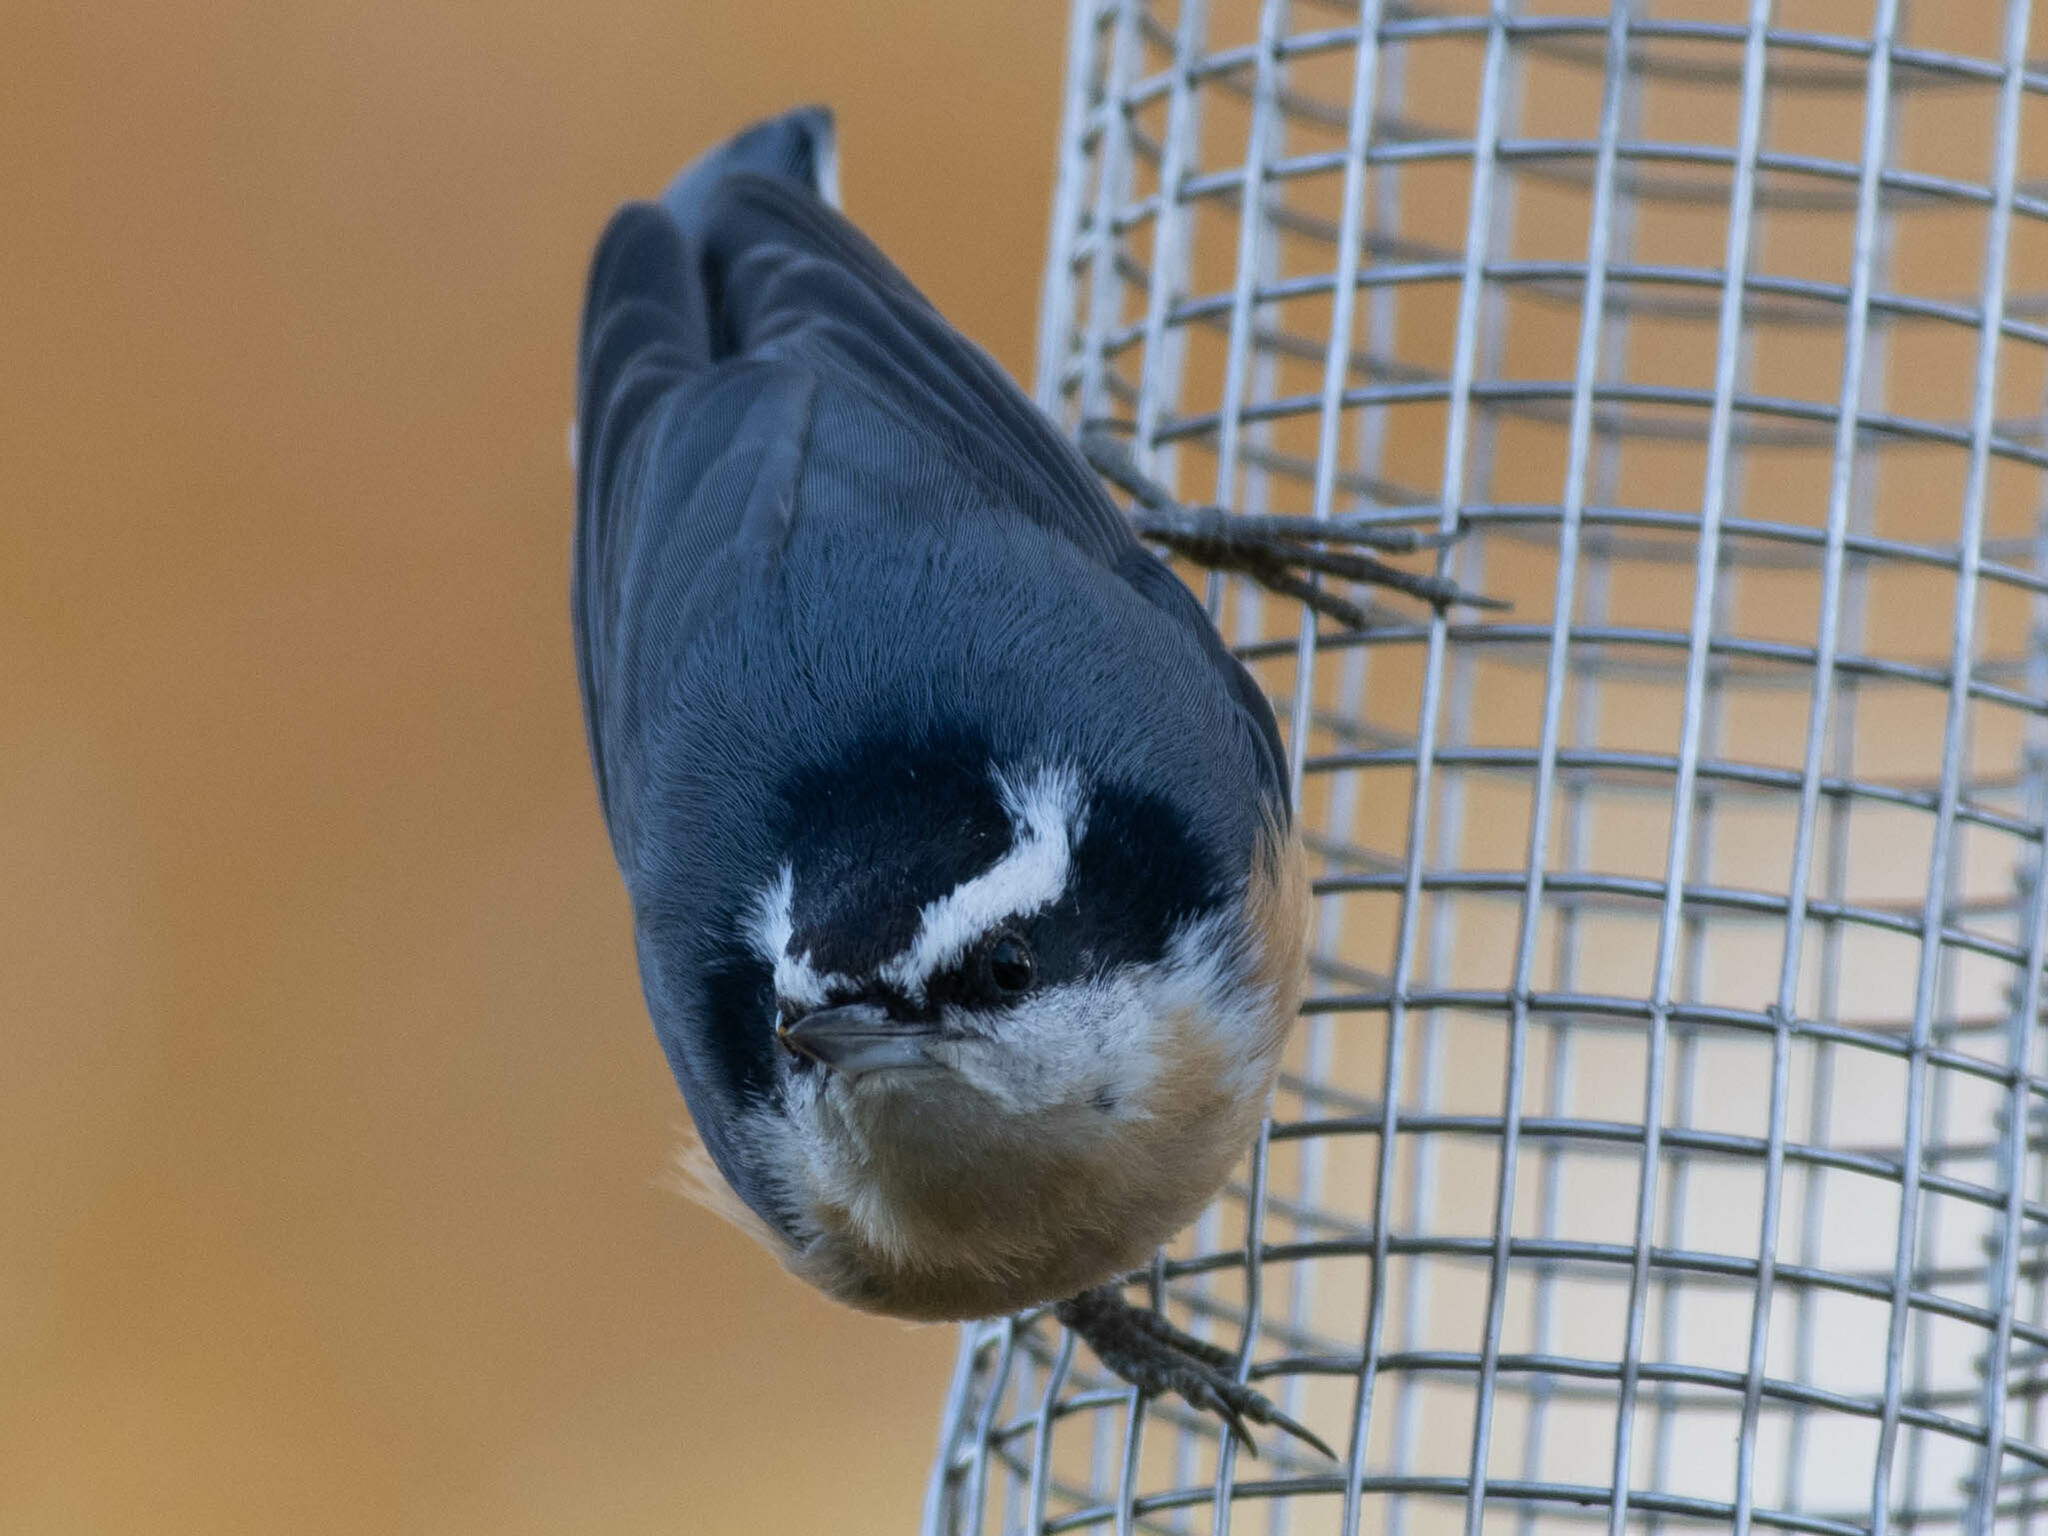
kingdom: Animalia
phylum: Chordata
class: Aves
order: Passeriformes
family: Sittidae
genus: Sitta
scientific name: Sitta canadensis
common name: Red-breasted nuthatch
